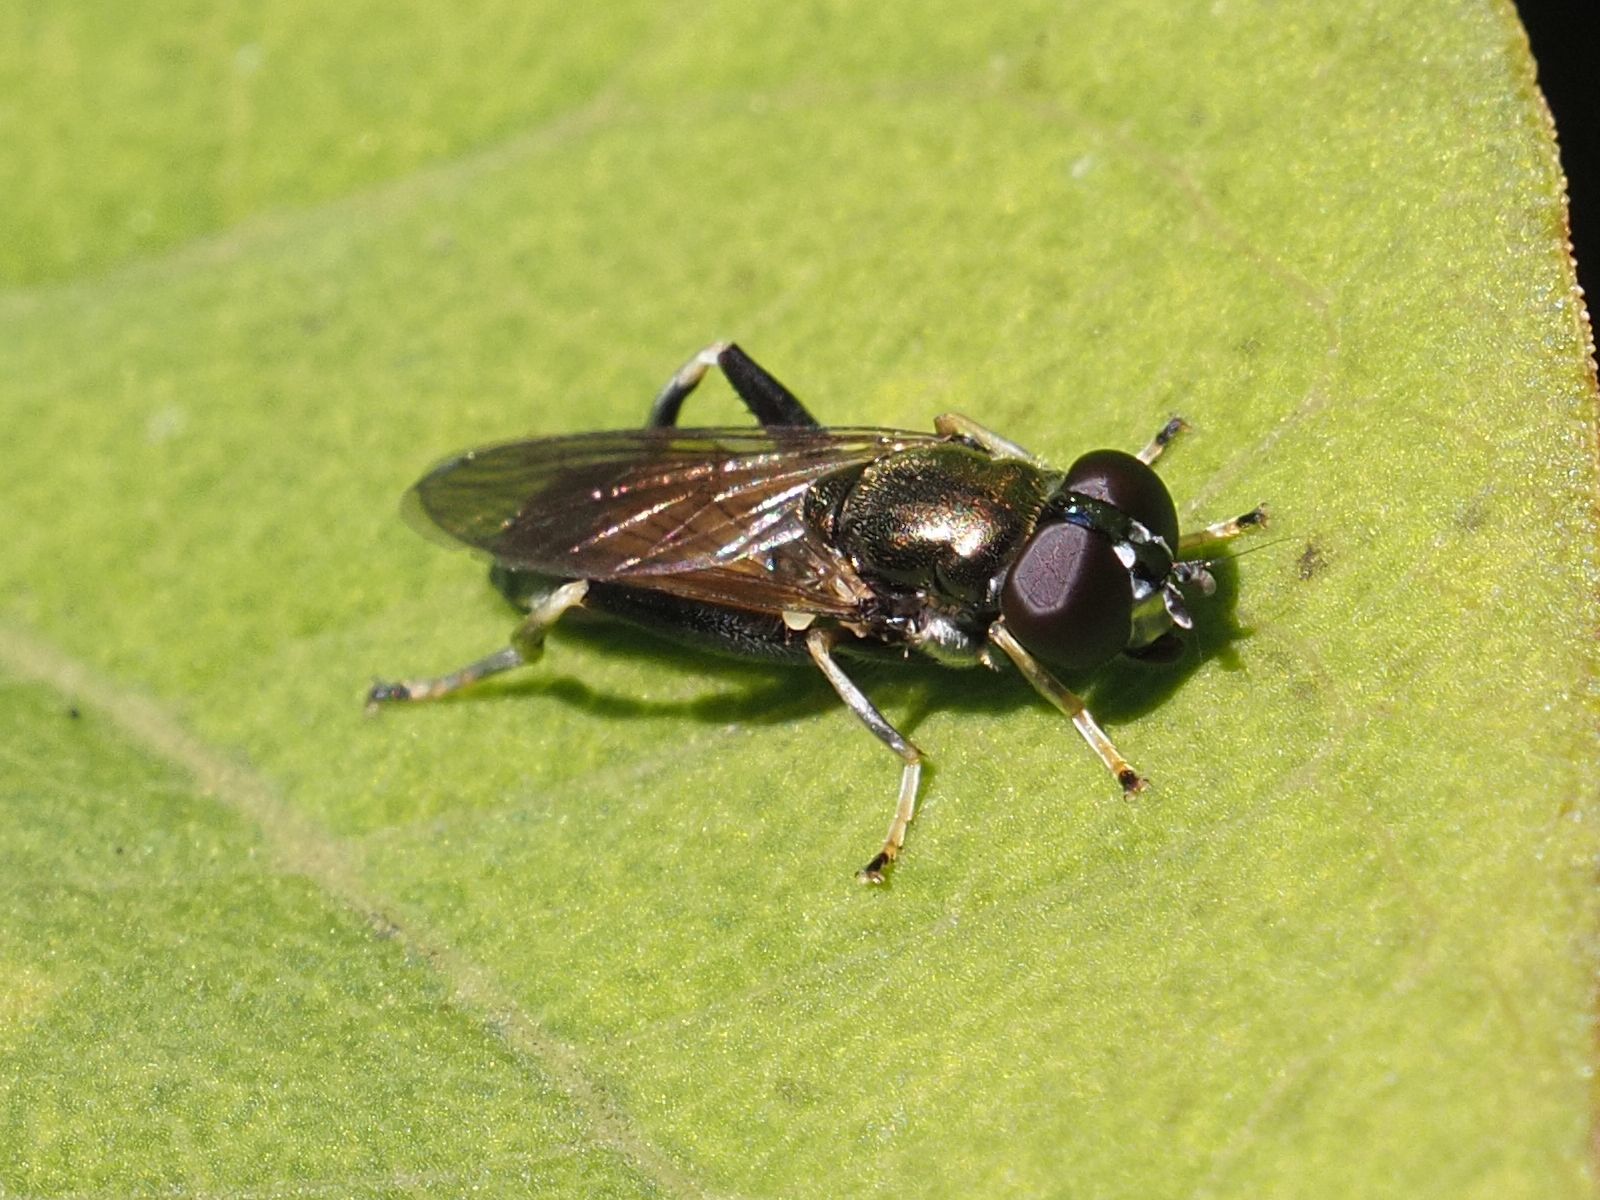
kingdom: Animalia
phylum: Arthropoda
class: Insecta
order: Diptera
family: Syrphidae
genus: Xylota
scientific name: Xylota segnis
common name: Brown-toed forest fly
